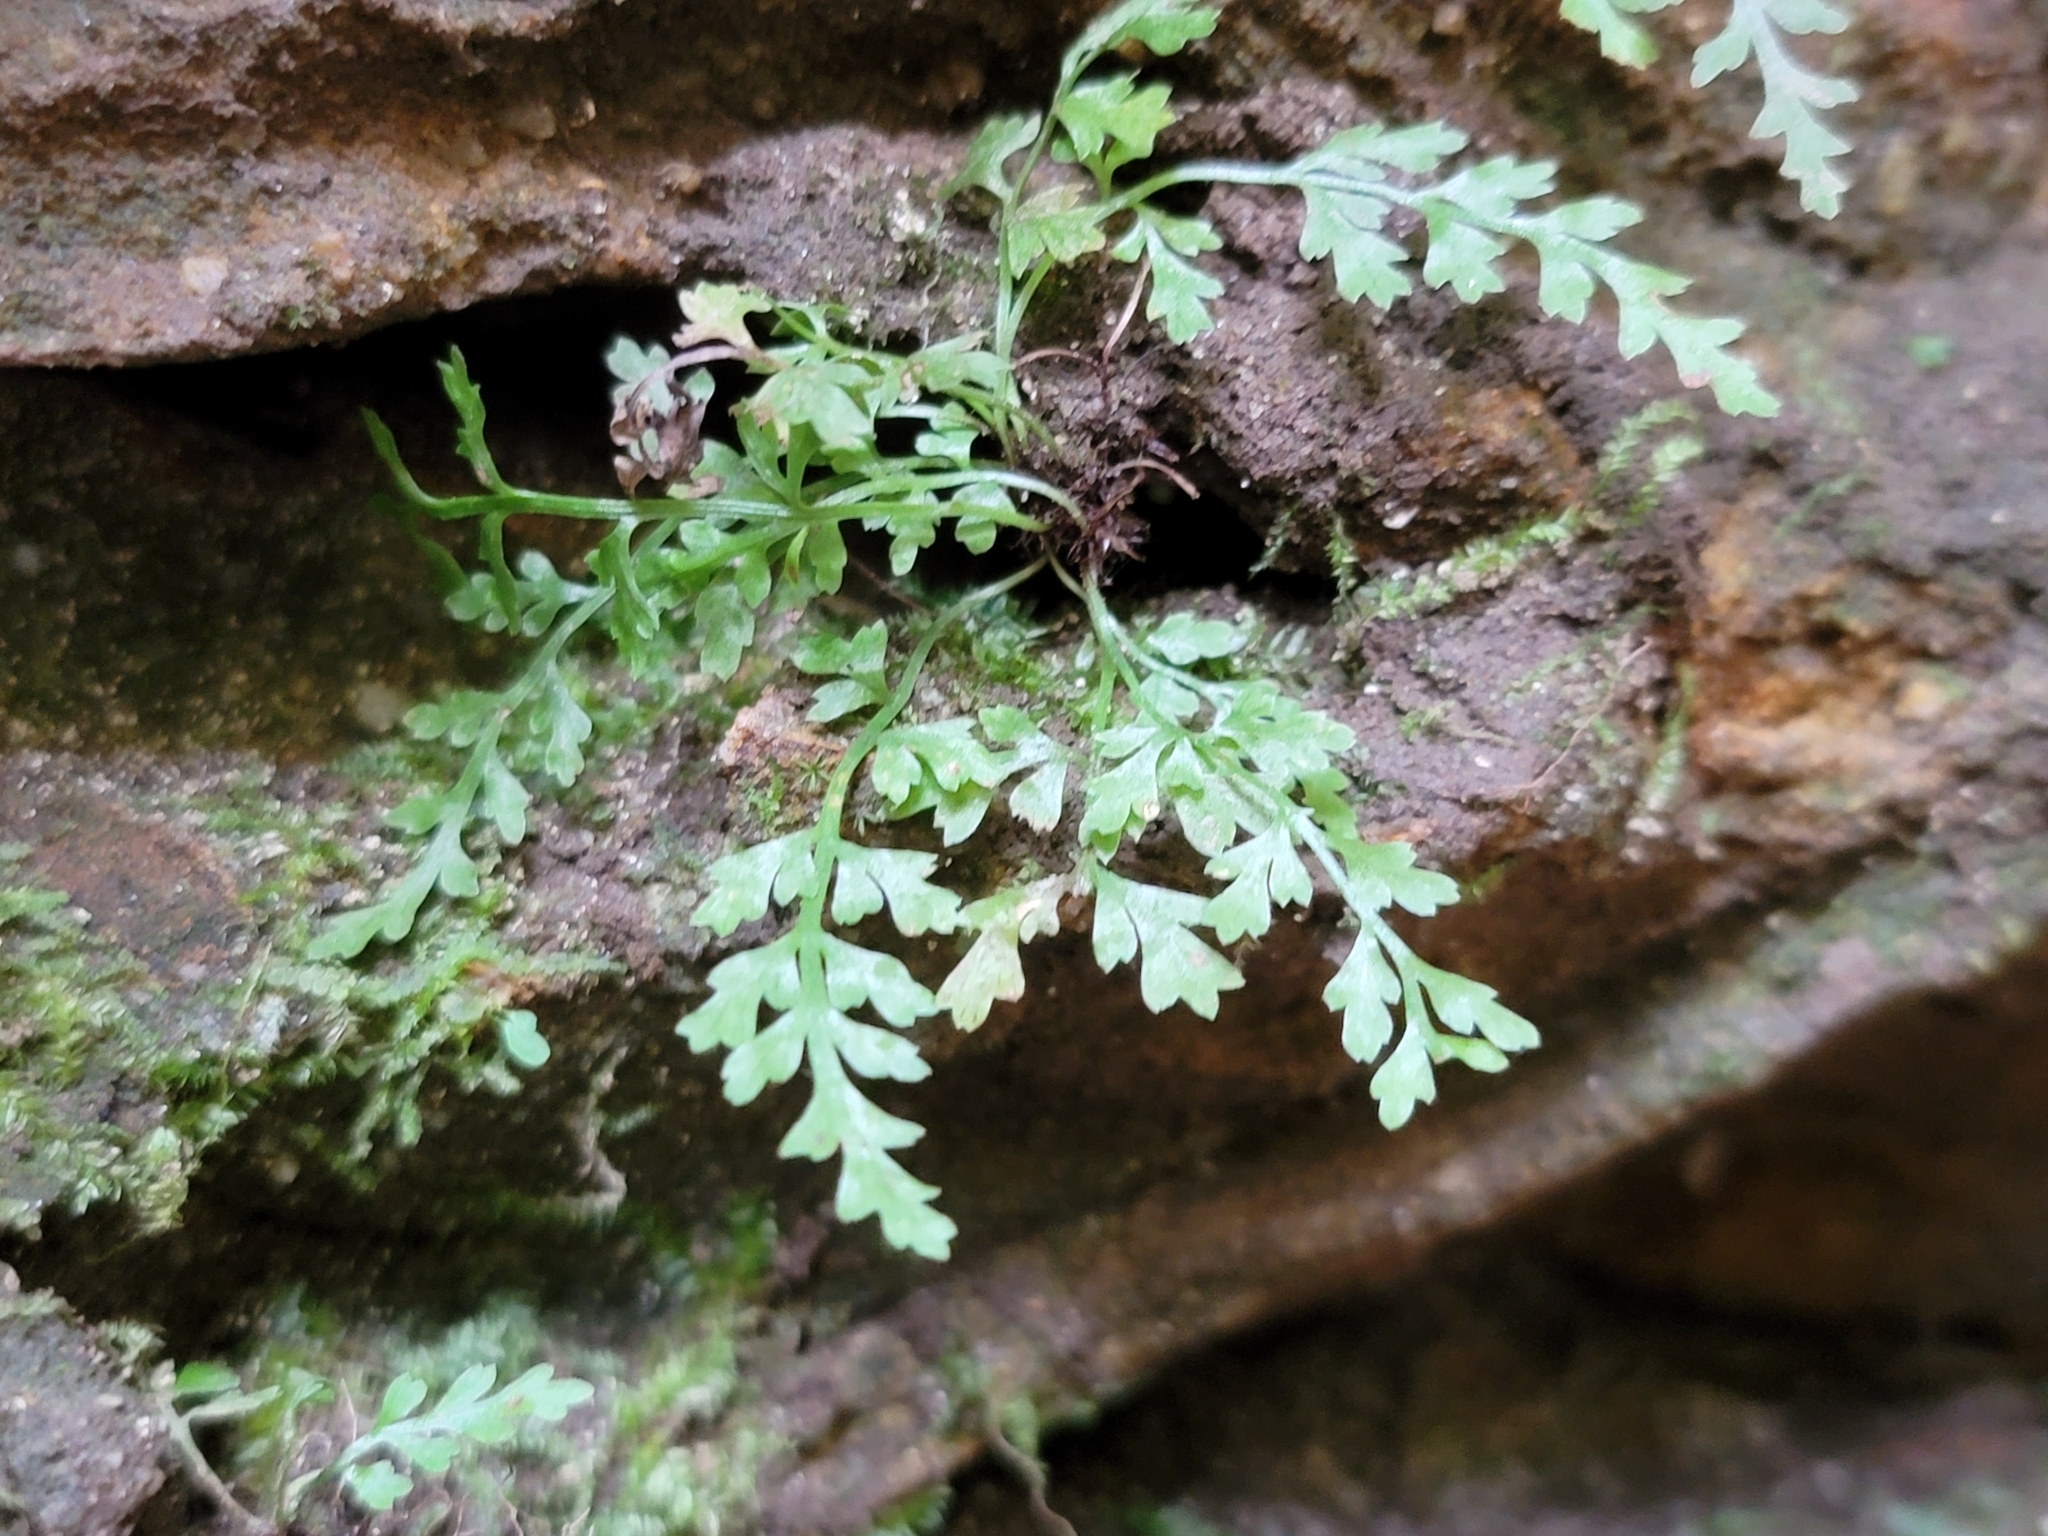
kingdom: Plantae
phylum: Tracheophyta
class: Polypodiopsida
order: Polypodiales
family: Aspleniaceae
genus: Asplenium
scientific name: Asplenium montanum
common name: Mountain spleenwort
